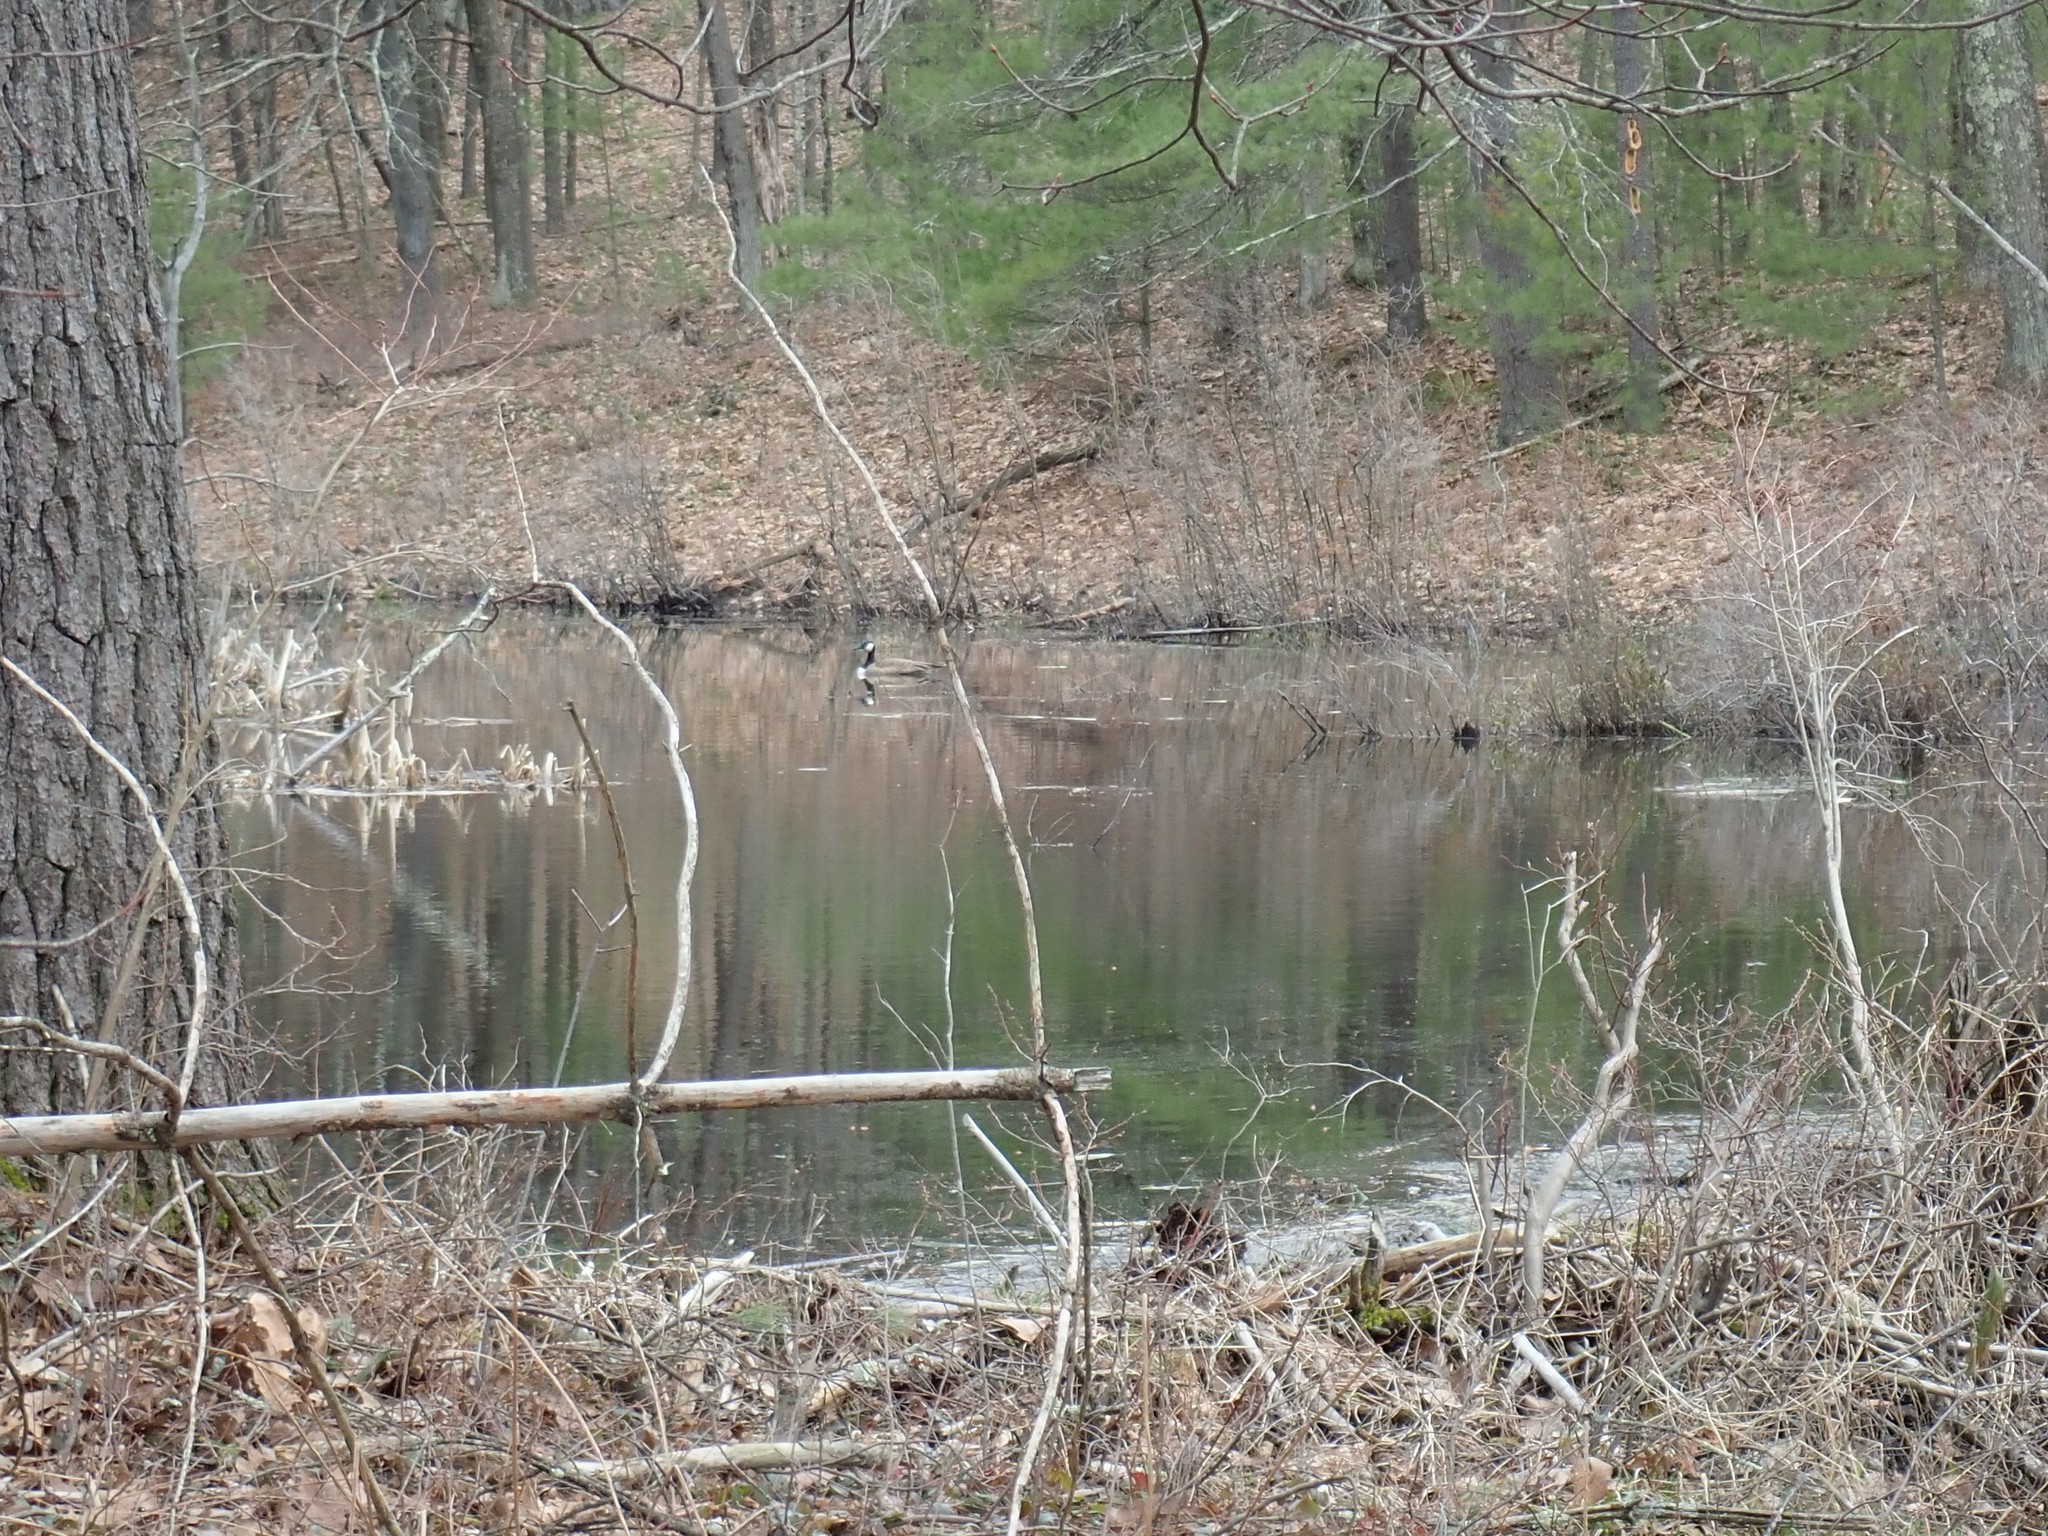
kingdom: Animalia
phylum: Chordata
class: Aves
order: Anseriformes
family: Anatidae
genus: Branta
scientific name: Branta canadensis
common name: Canada goose
